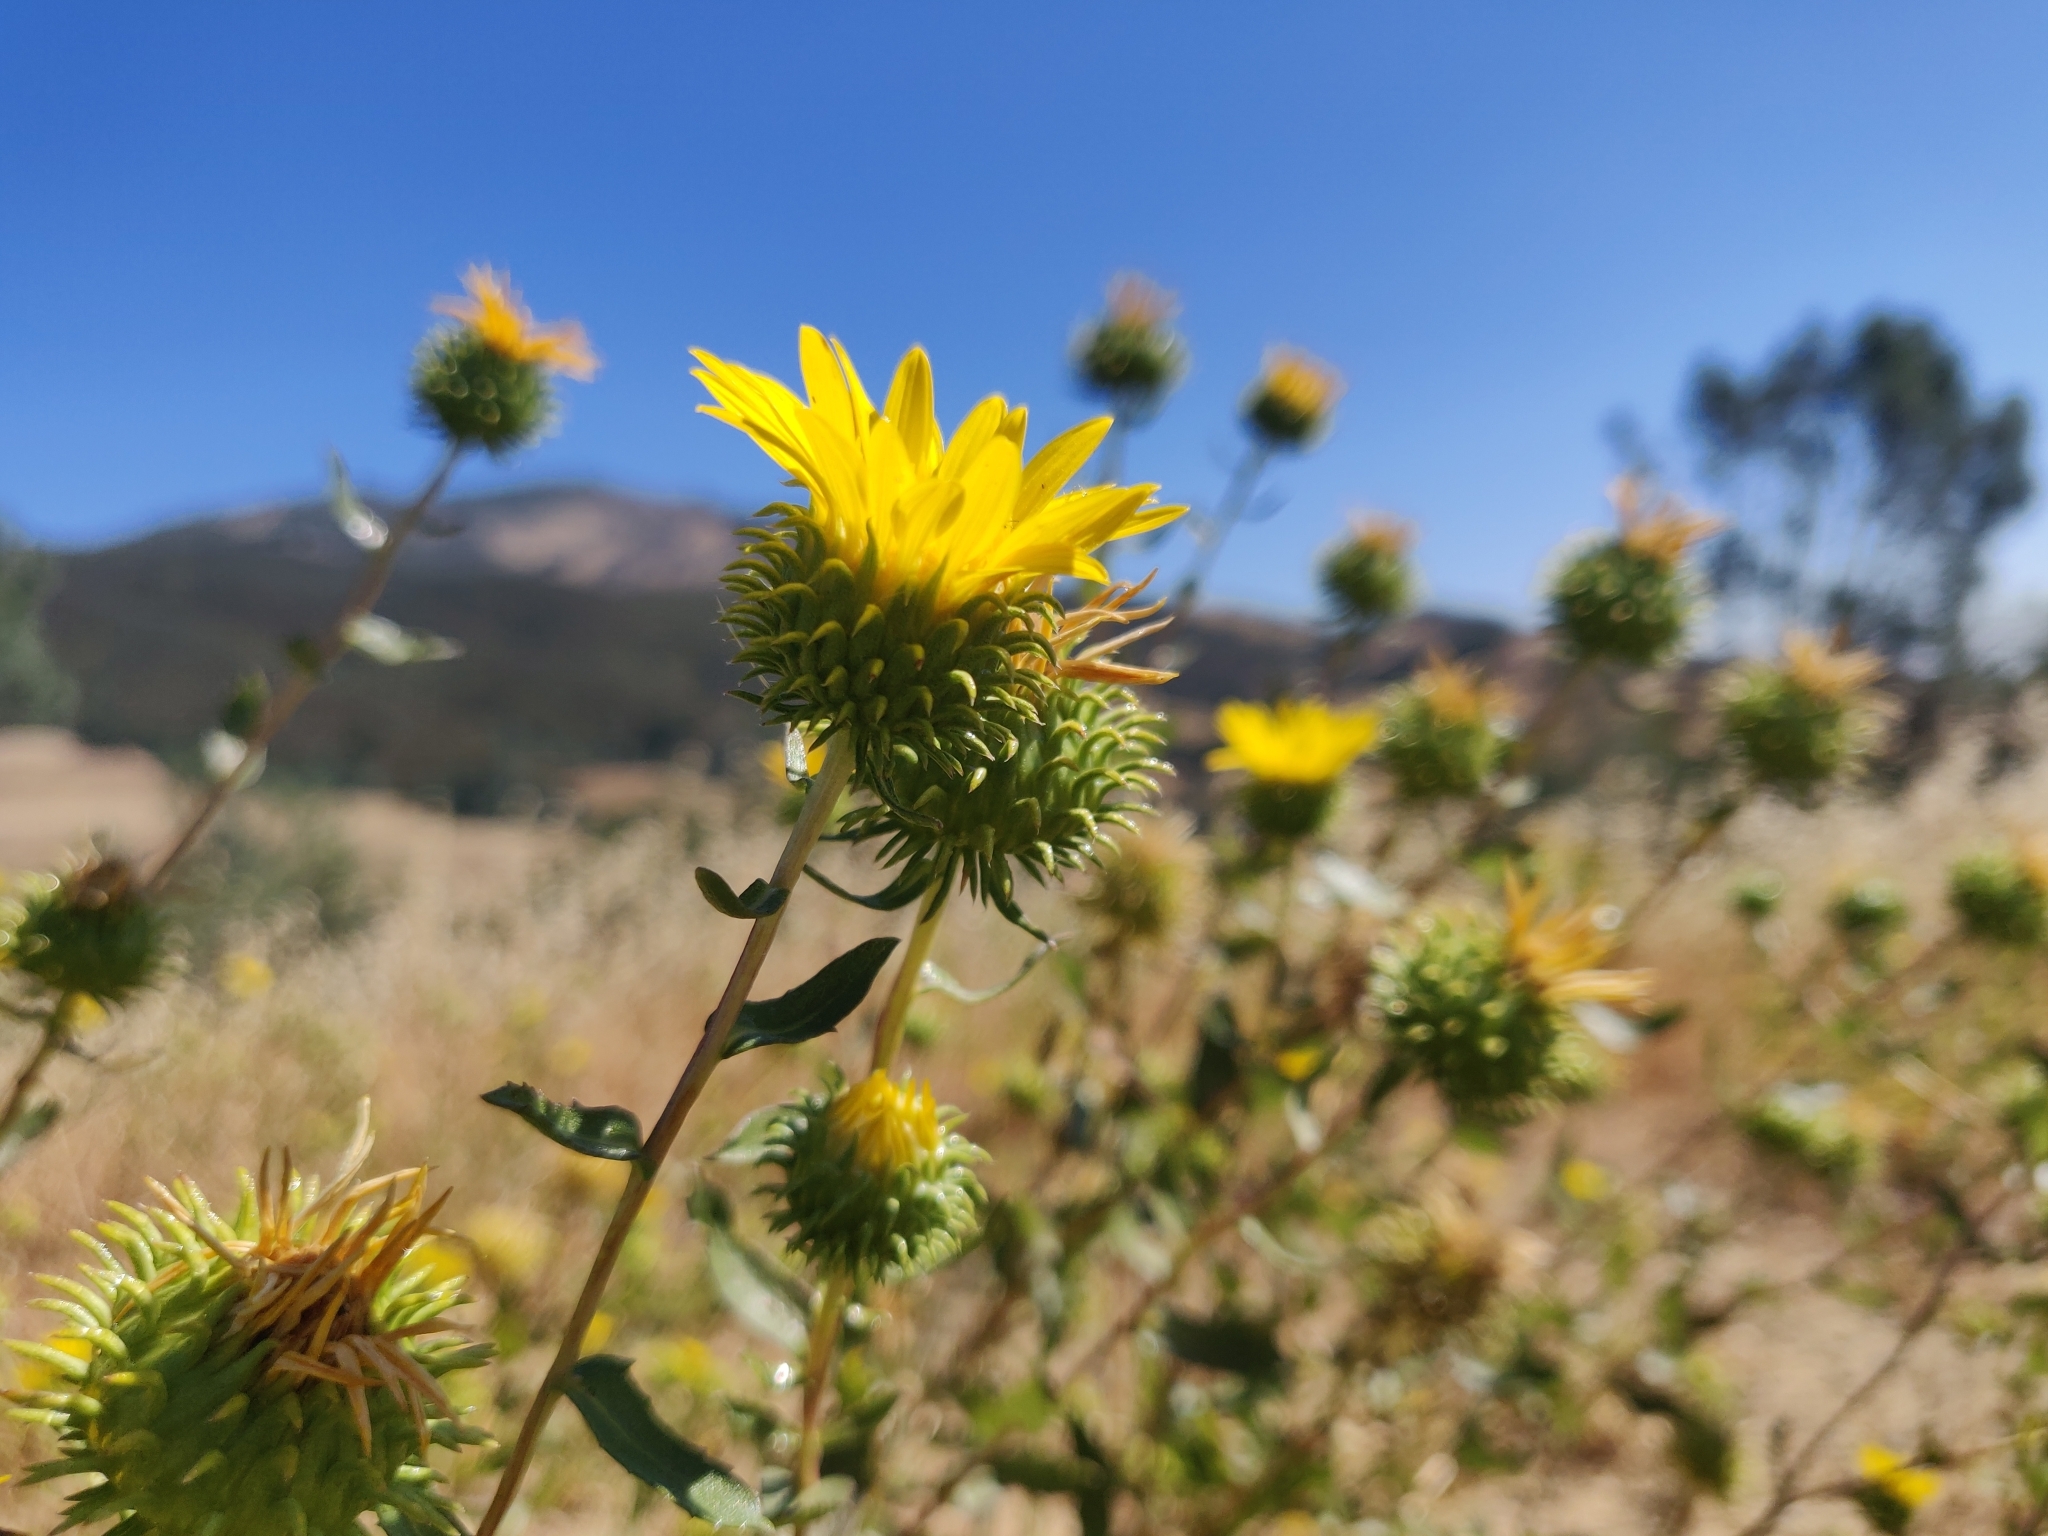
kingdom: Plantae
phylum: Tracheophyta
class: Magnoliopsida
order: Asterales
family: Asteraceae
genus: Grindelia
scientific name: Grindelia hirsutula
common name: Hairy gumweed
